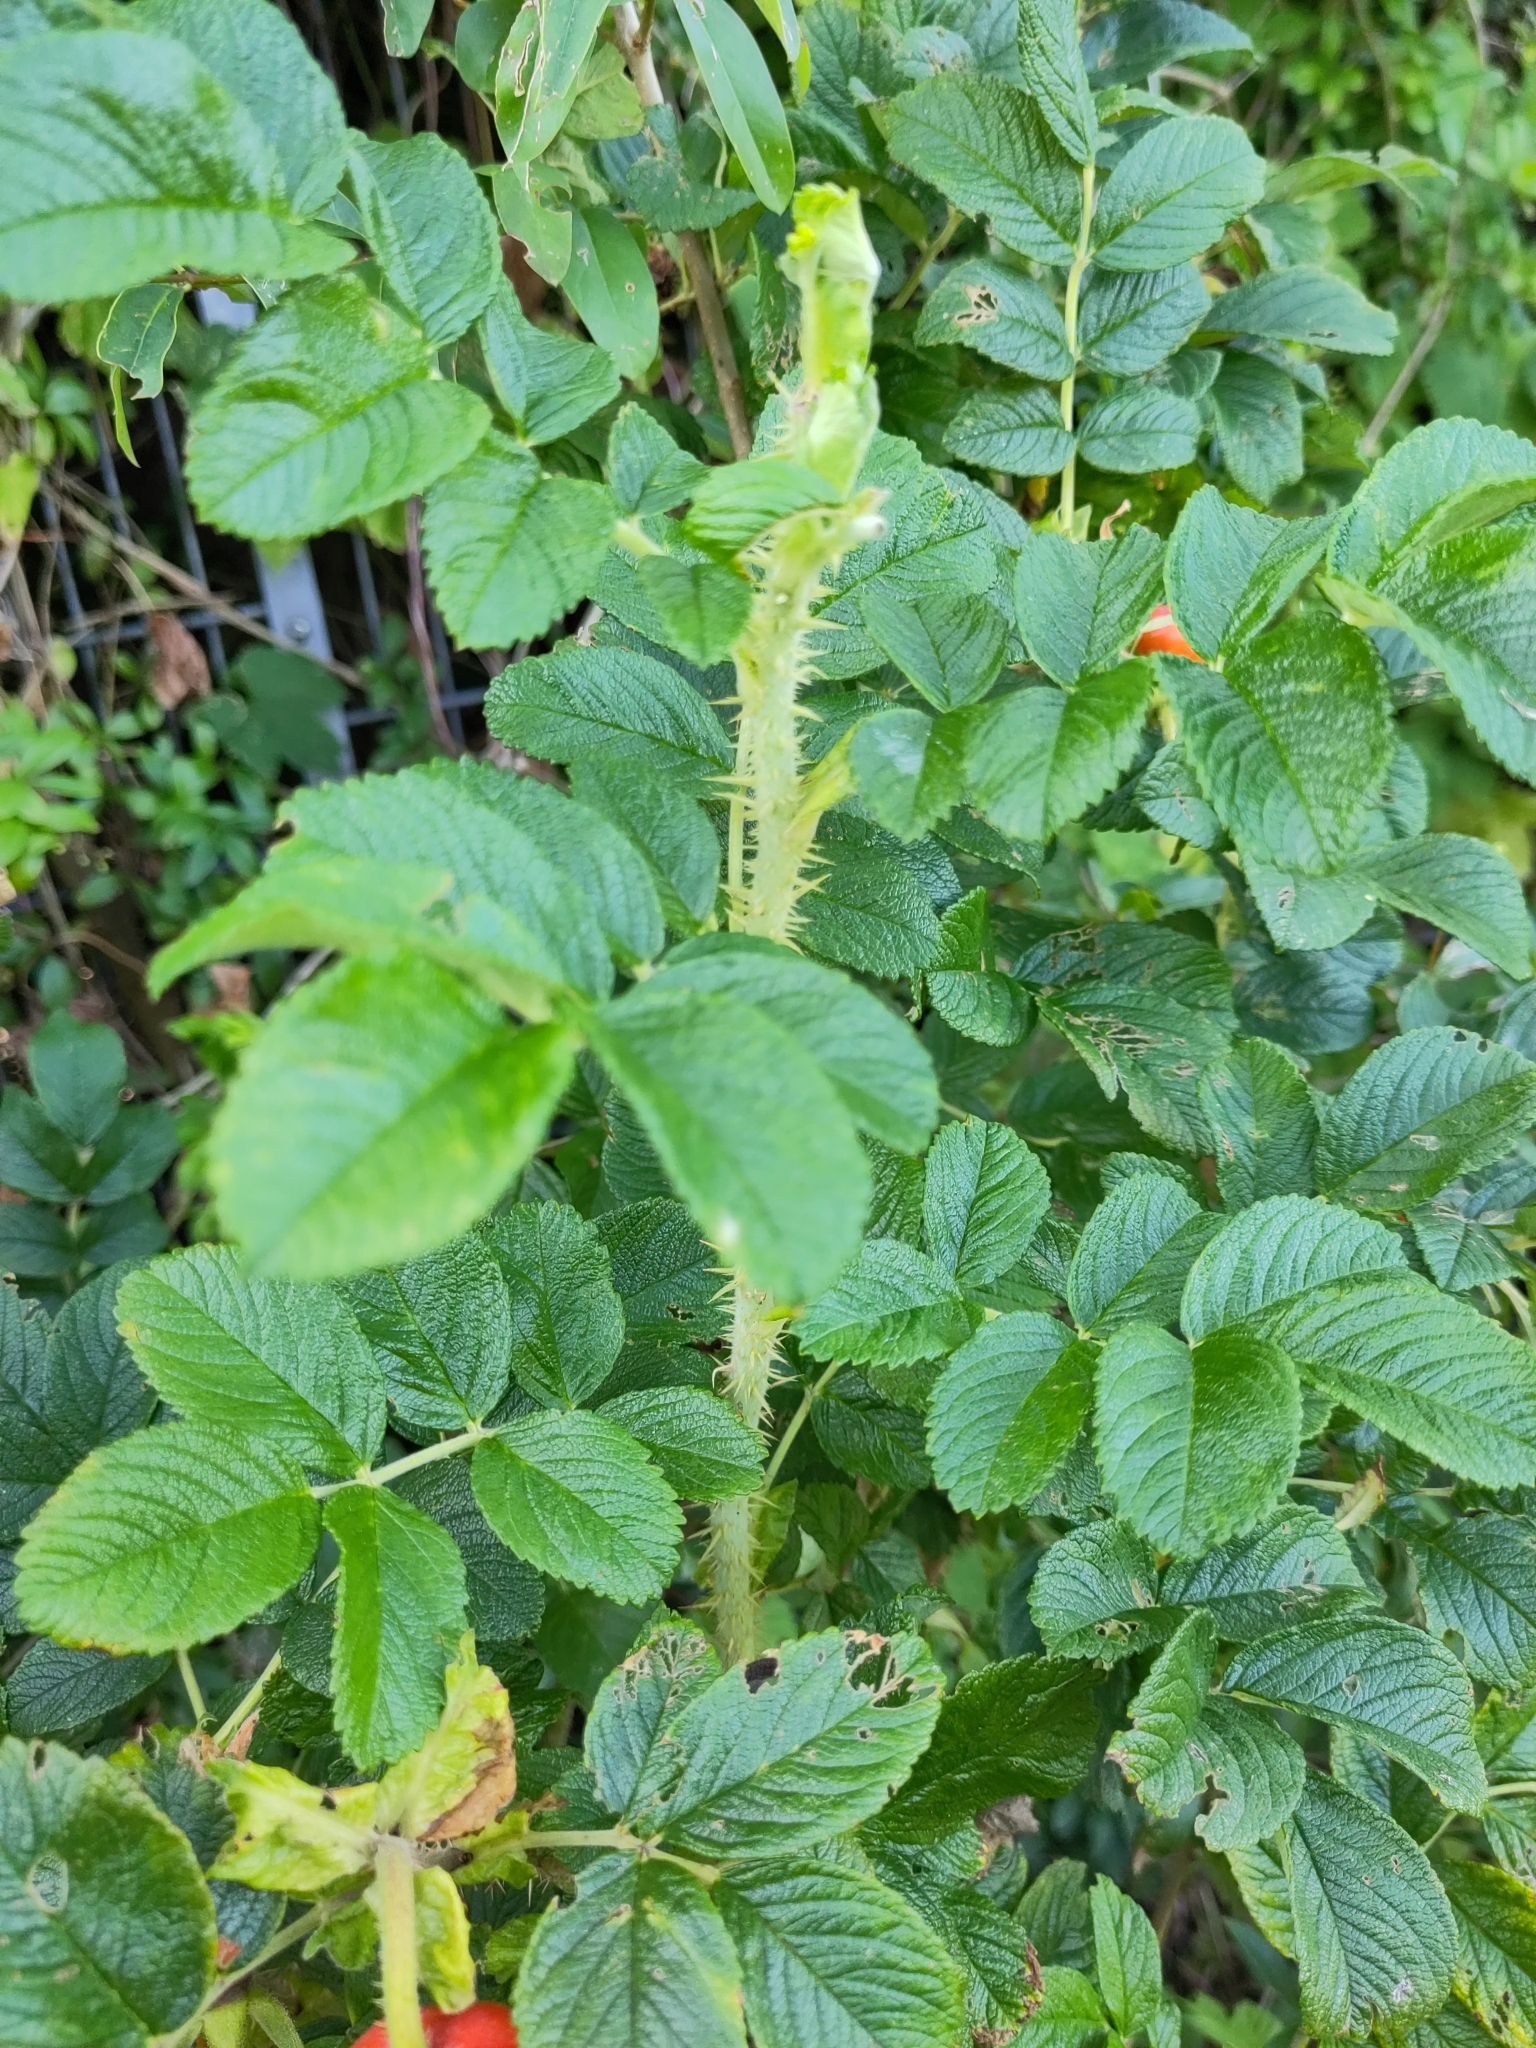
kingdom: Plantae
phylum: Tracheophyta
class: Magnoliopsida
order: Rosales
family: Rosaceae
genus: Rosa
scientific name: Rosa rugosa
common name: Japanese rose
